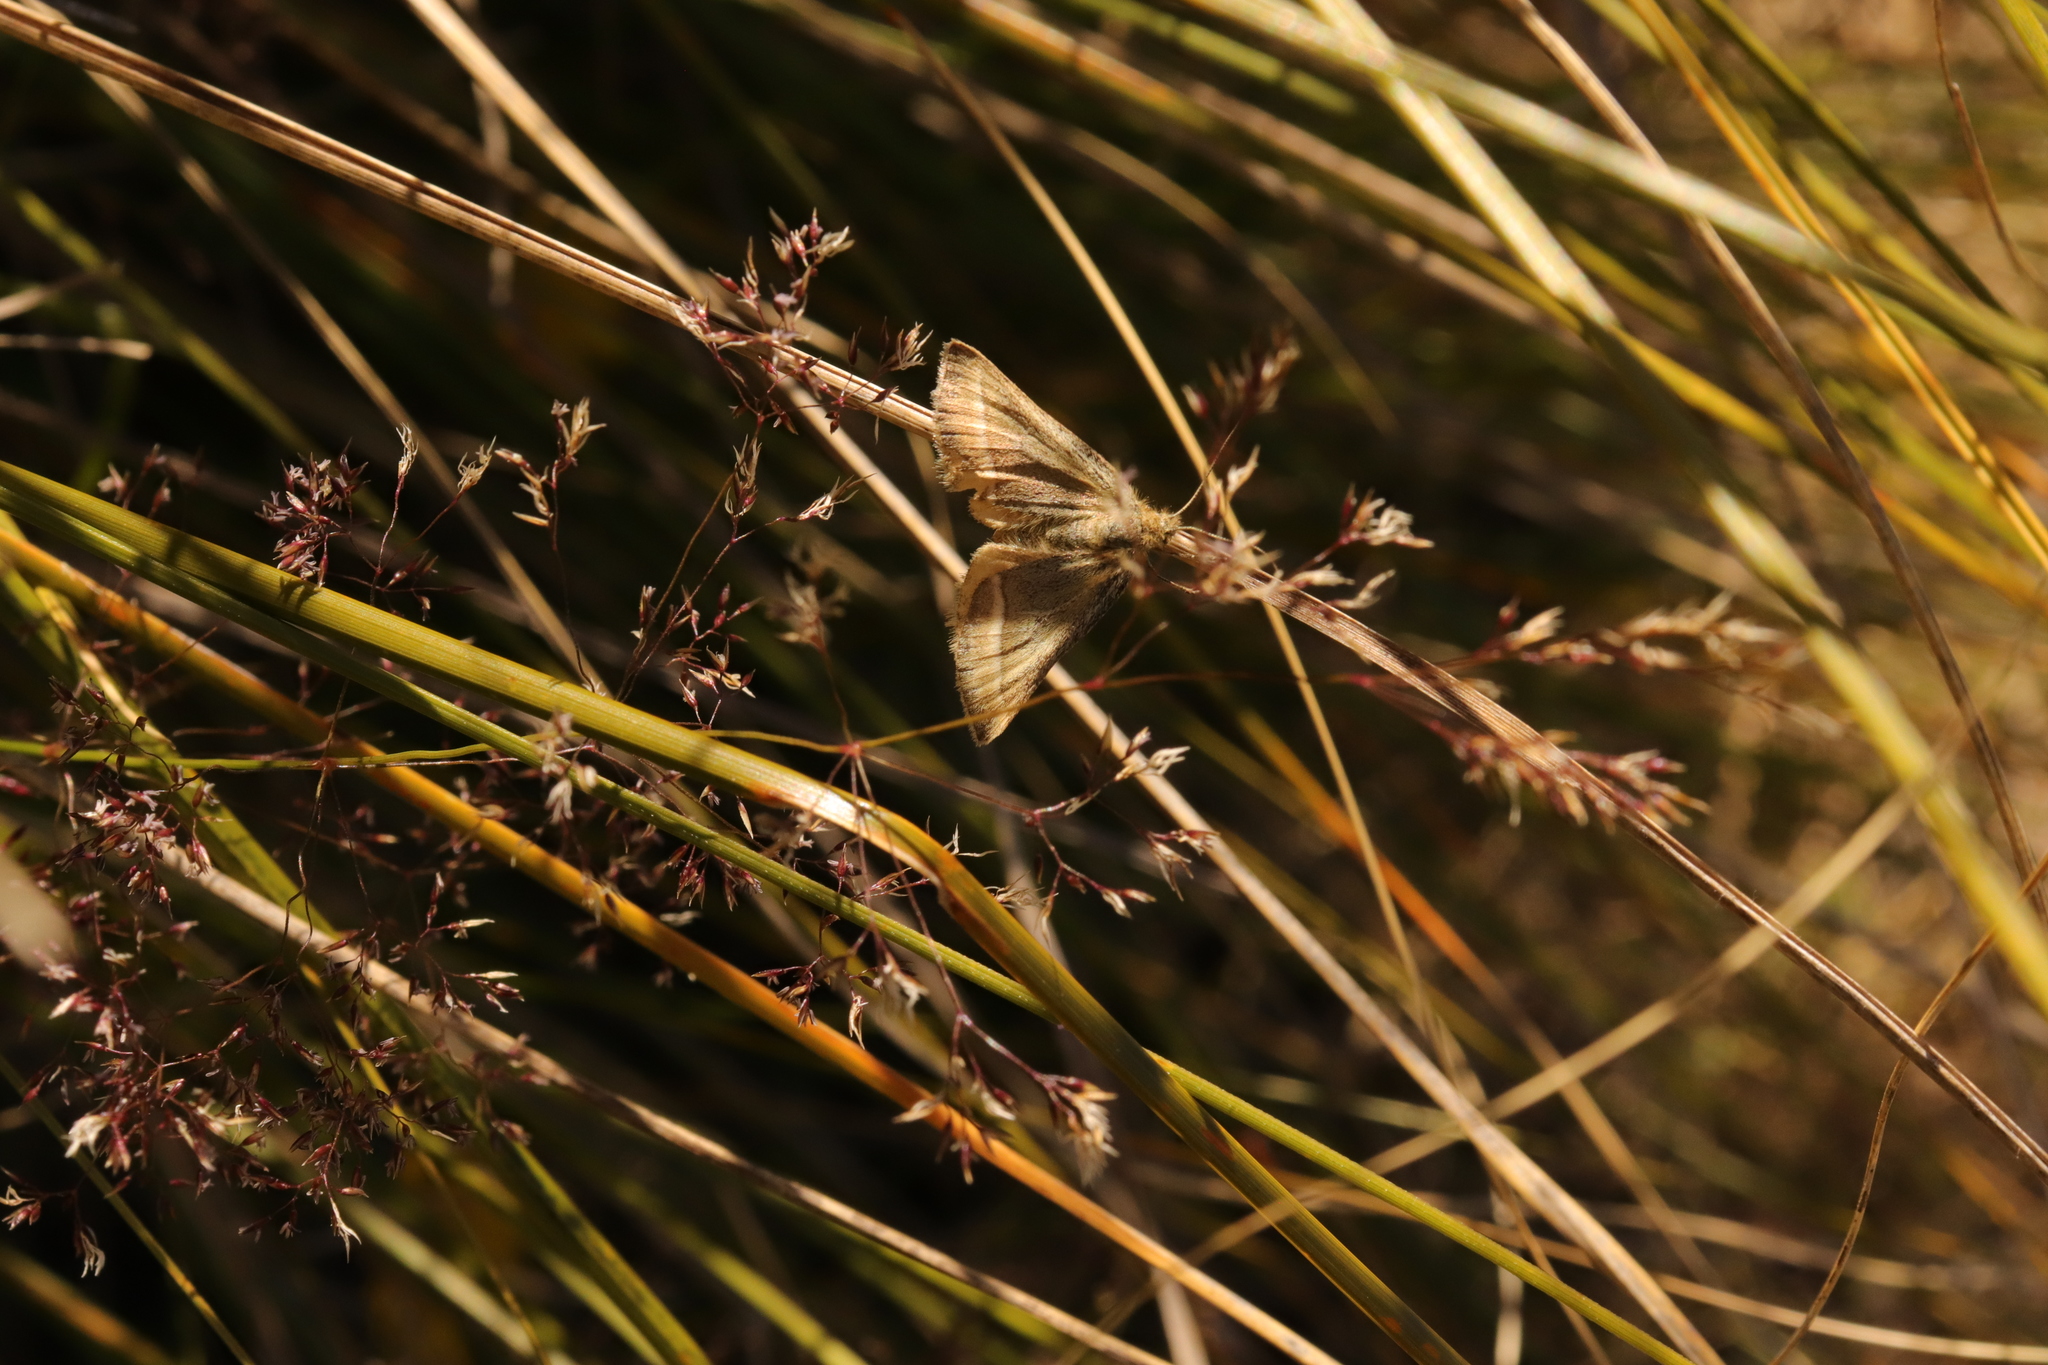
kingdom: Animalia
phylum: Arthropoda
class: Insecta
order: Lepidoptera
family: Geometridae
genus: Aponotoreas
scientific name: Aponotoreas insignis
